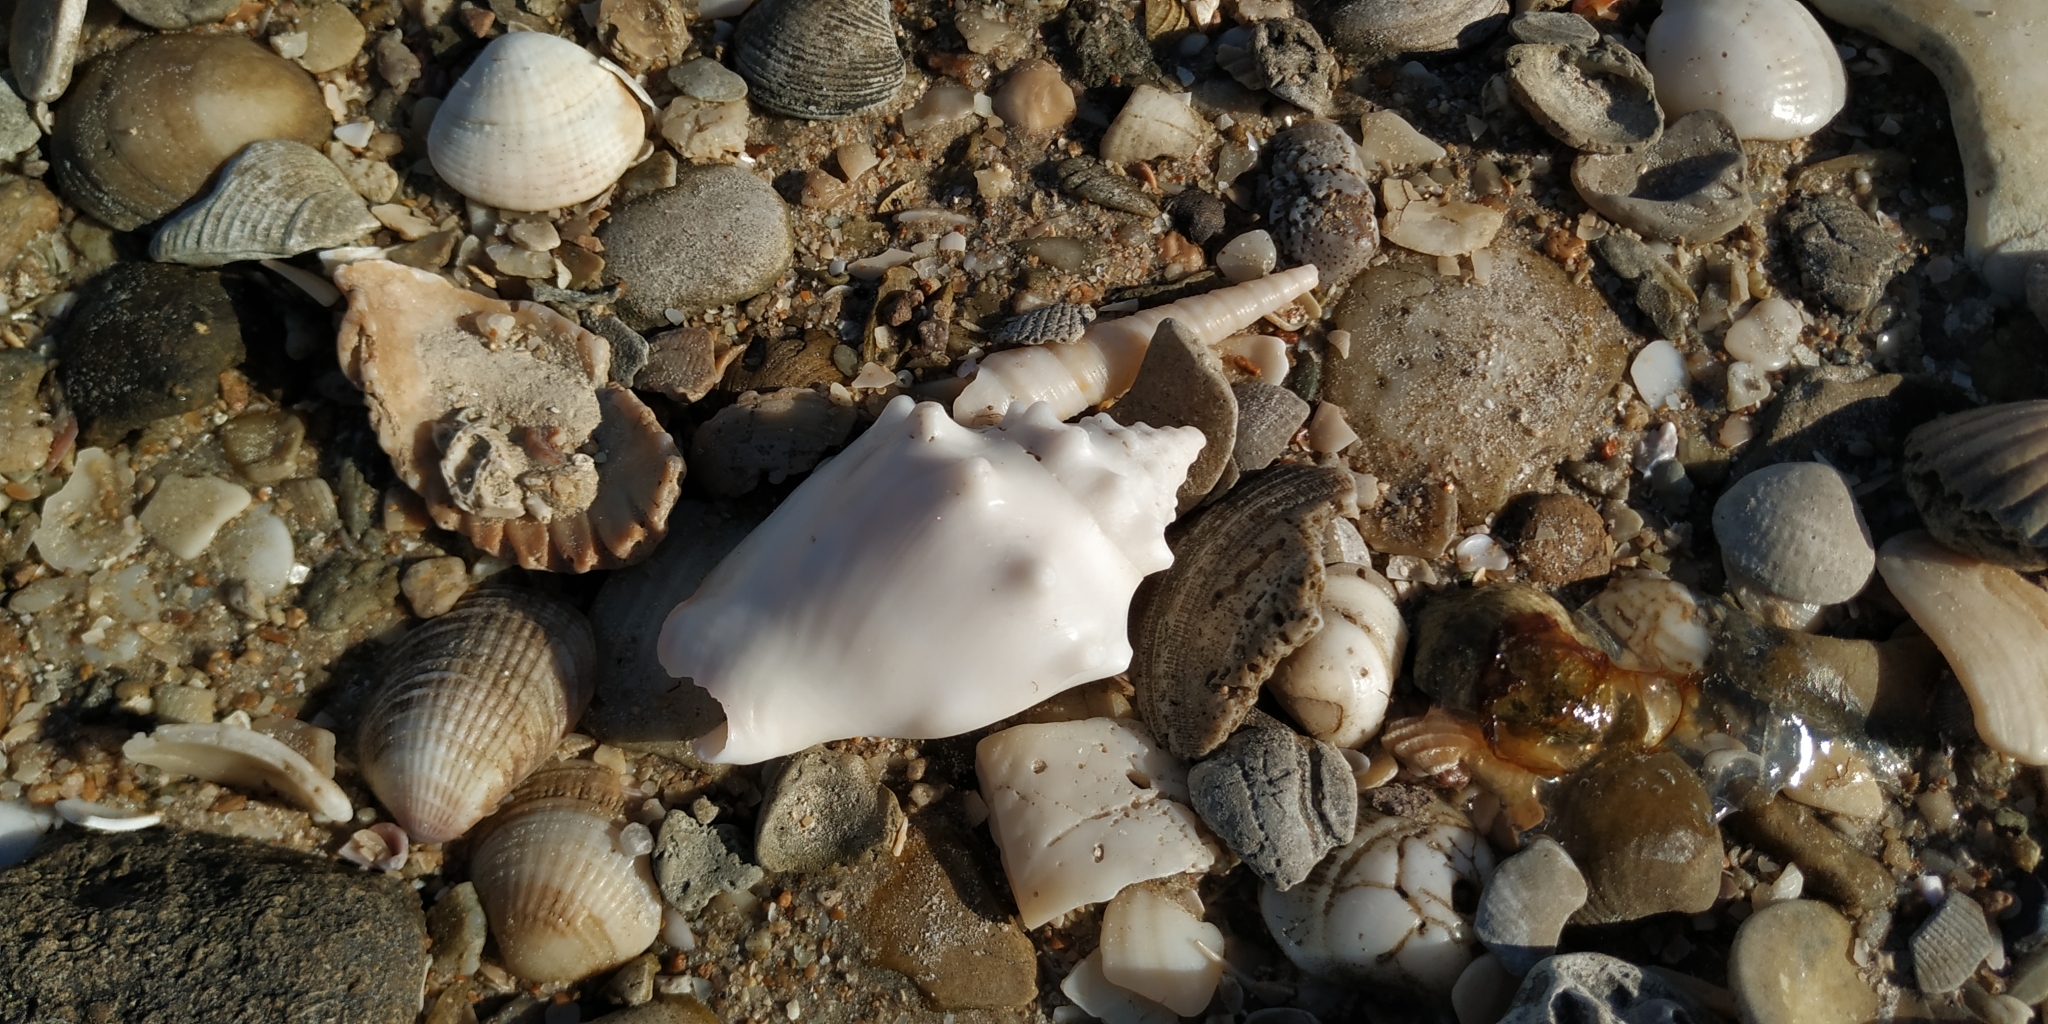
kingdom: Animalia
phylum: Mollusca
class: Gastropoda
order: Littorinimorpha
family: Strombidae
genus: Strombus
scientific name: Strombus gracilior
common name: Eastern pacific fighting conch
